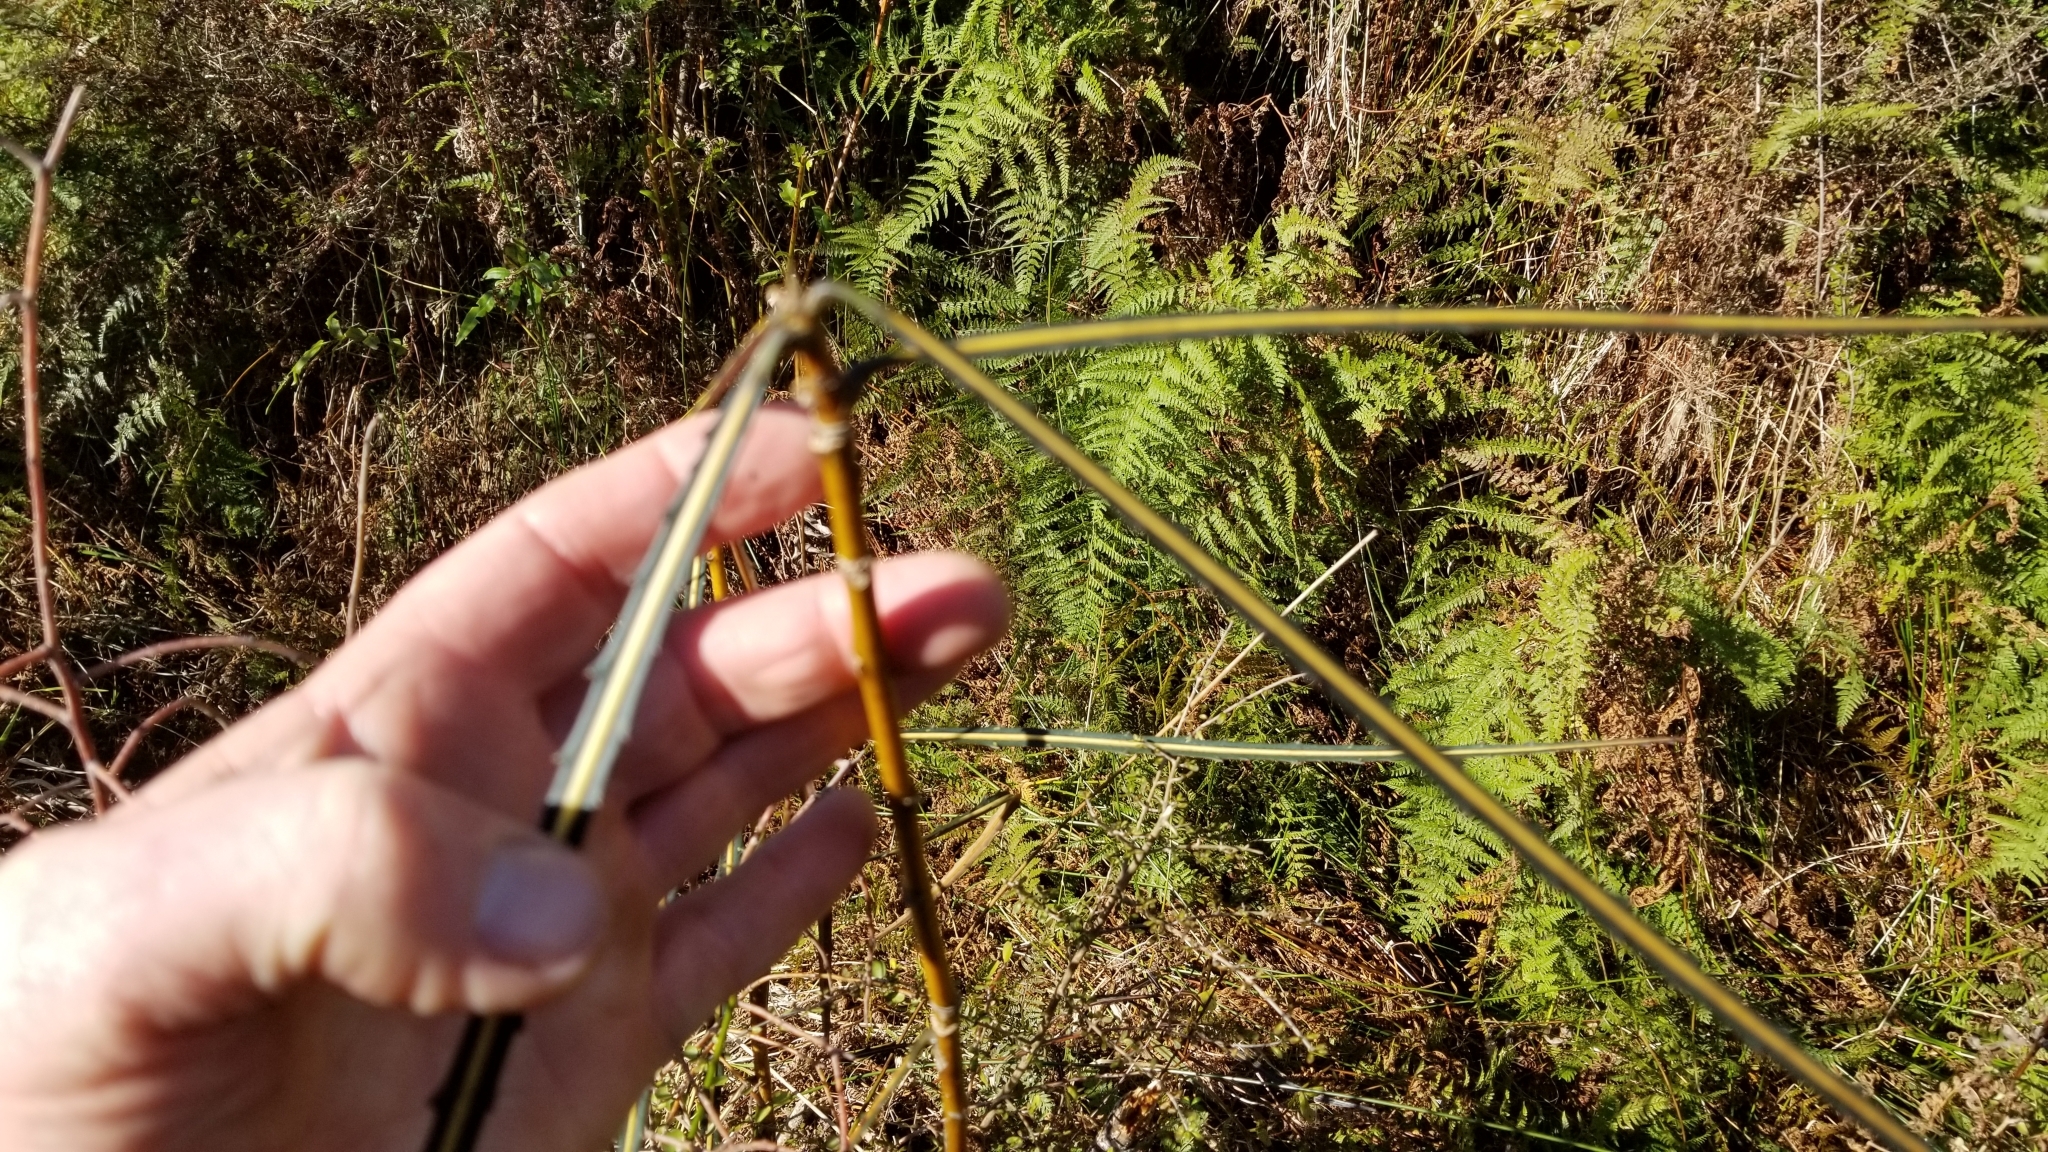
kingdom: Plantae
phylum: Tracheophyta
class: Magnoliopsida
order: Apiales
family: Araliaceae
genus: Pseudopanax
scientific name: Pseudopanax crassifolius
